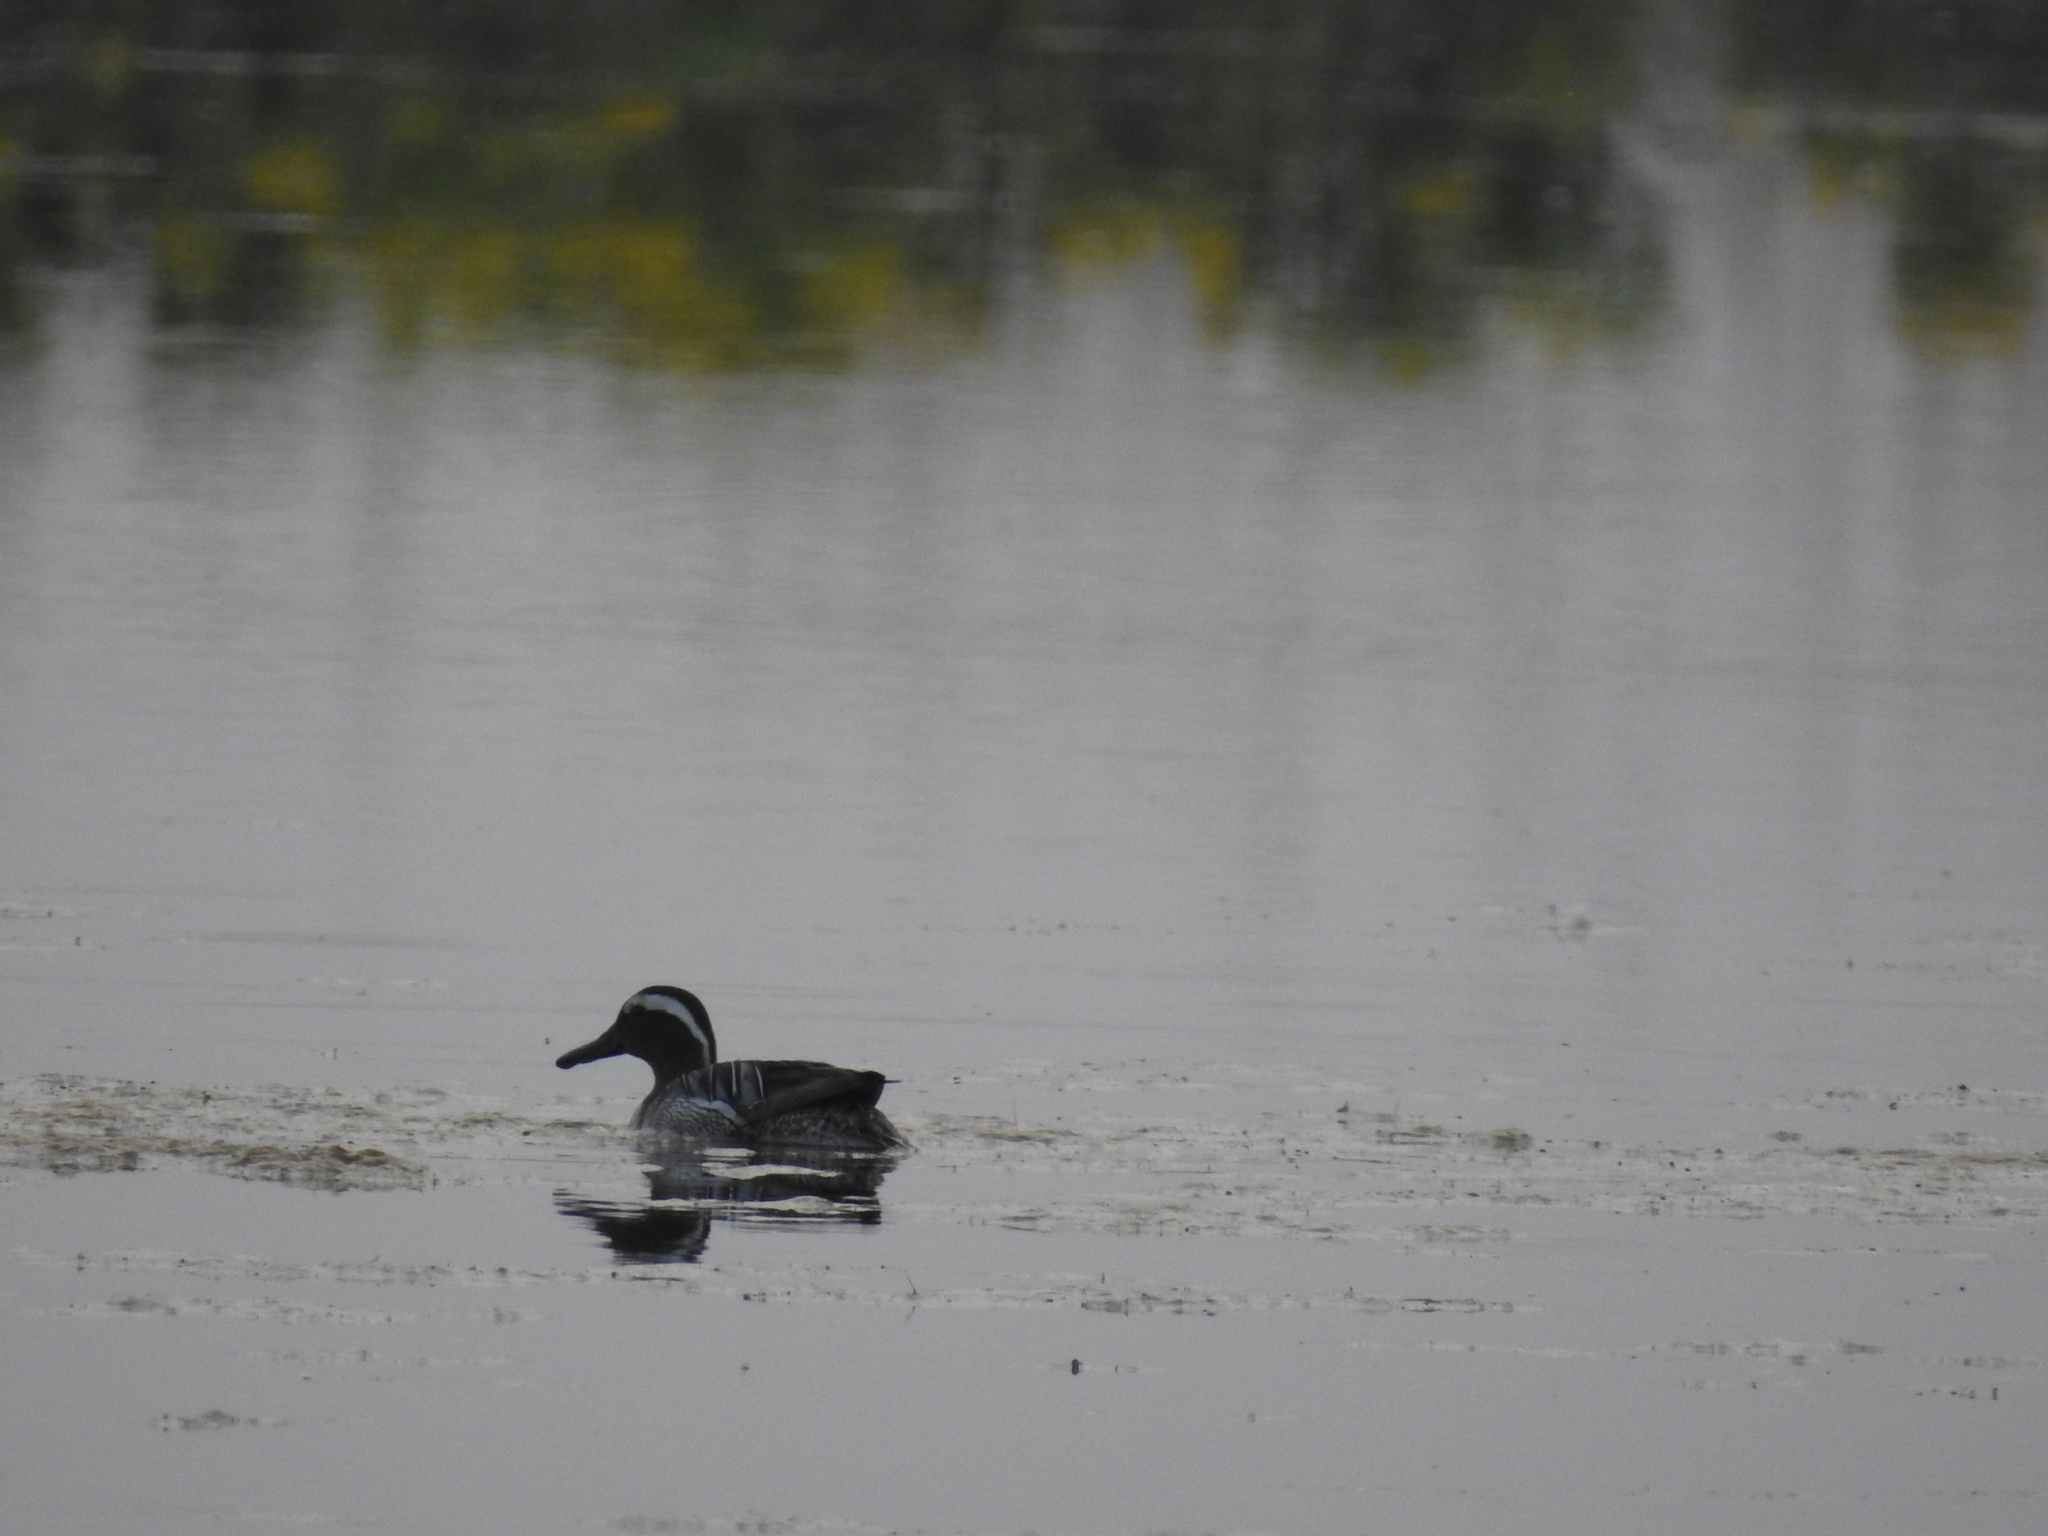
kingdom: Animalia
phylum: Chordata
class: Aves
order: Anseriformes
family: Anatidae
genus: Spatula
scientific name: Spatula querquedula
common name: Garganey
